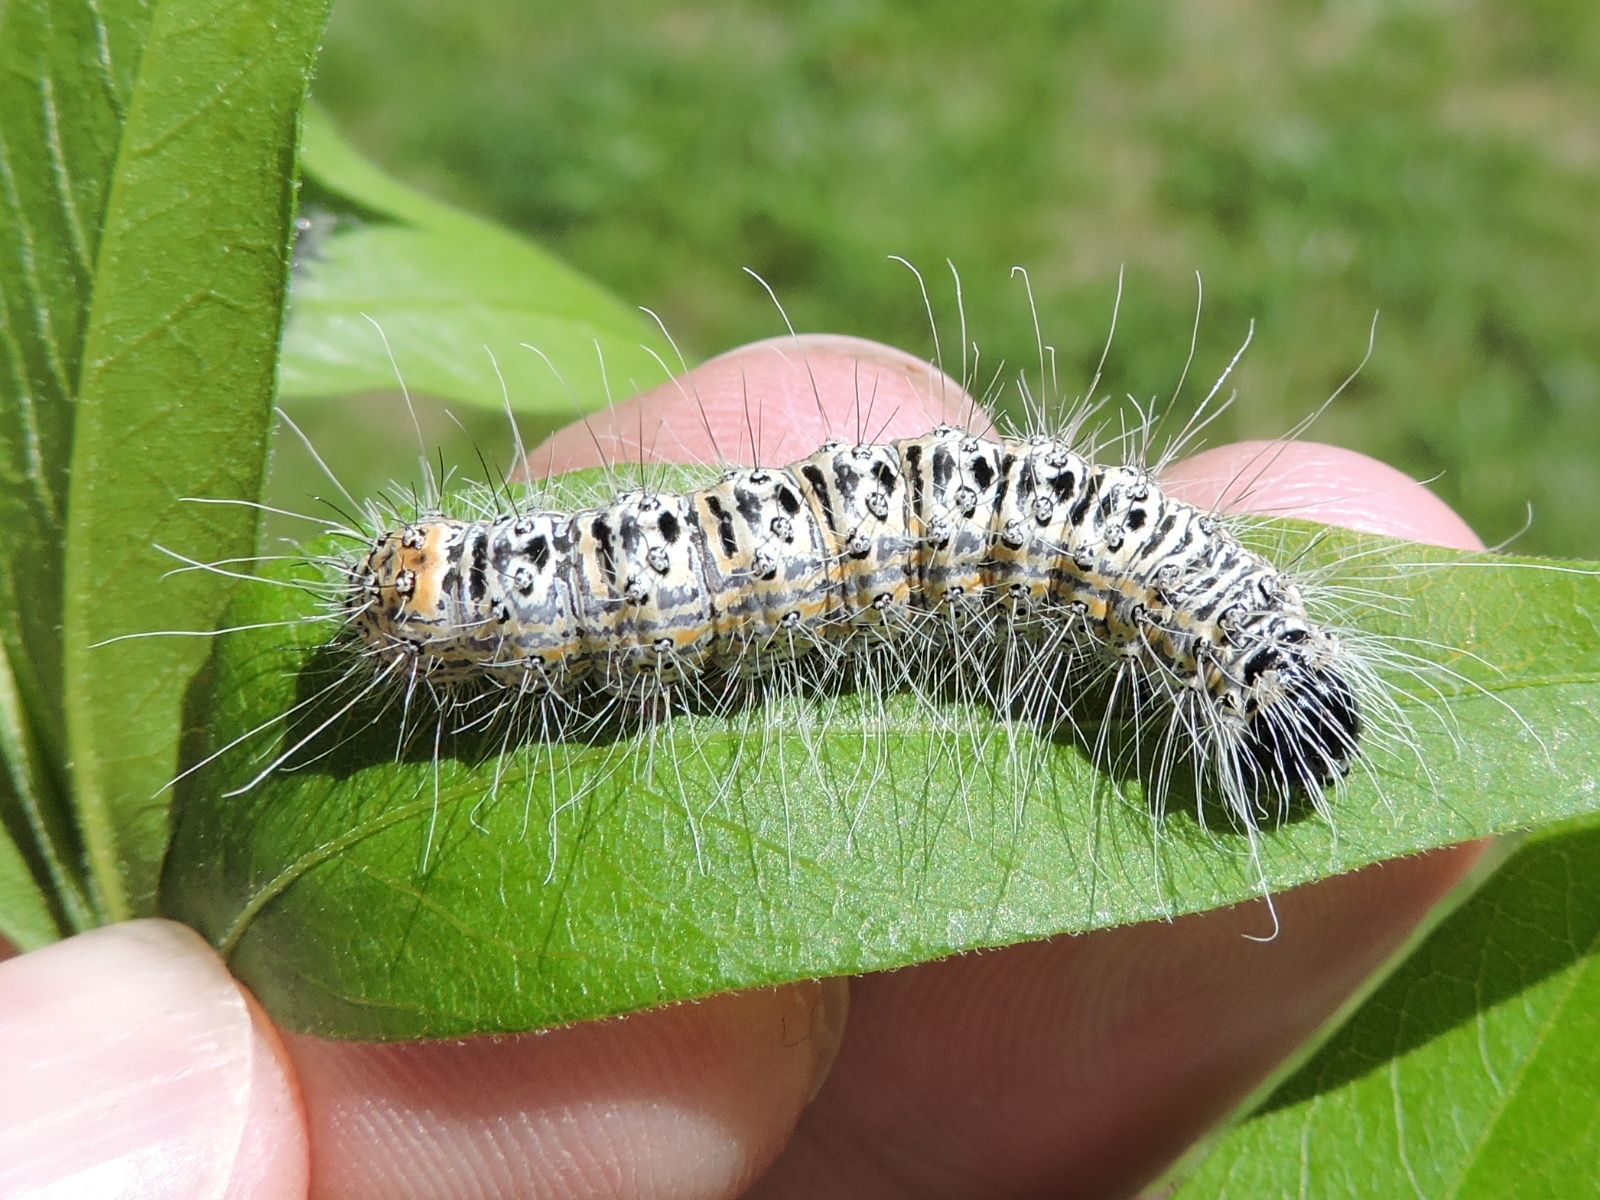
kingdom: Animalia
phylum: Arthropoda
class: Insecta
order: Lepidoptera
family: Noctuidae
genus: Acronicta
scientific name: Acronicta tota
